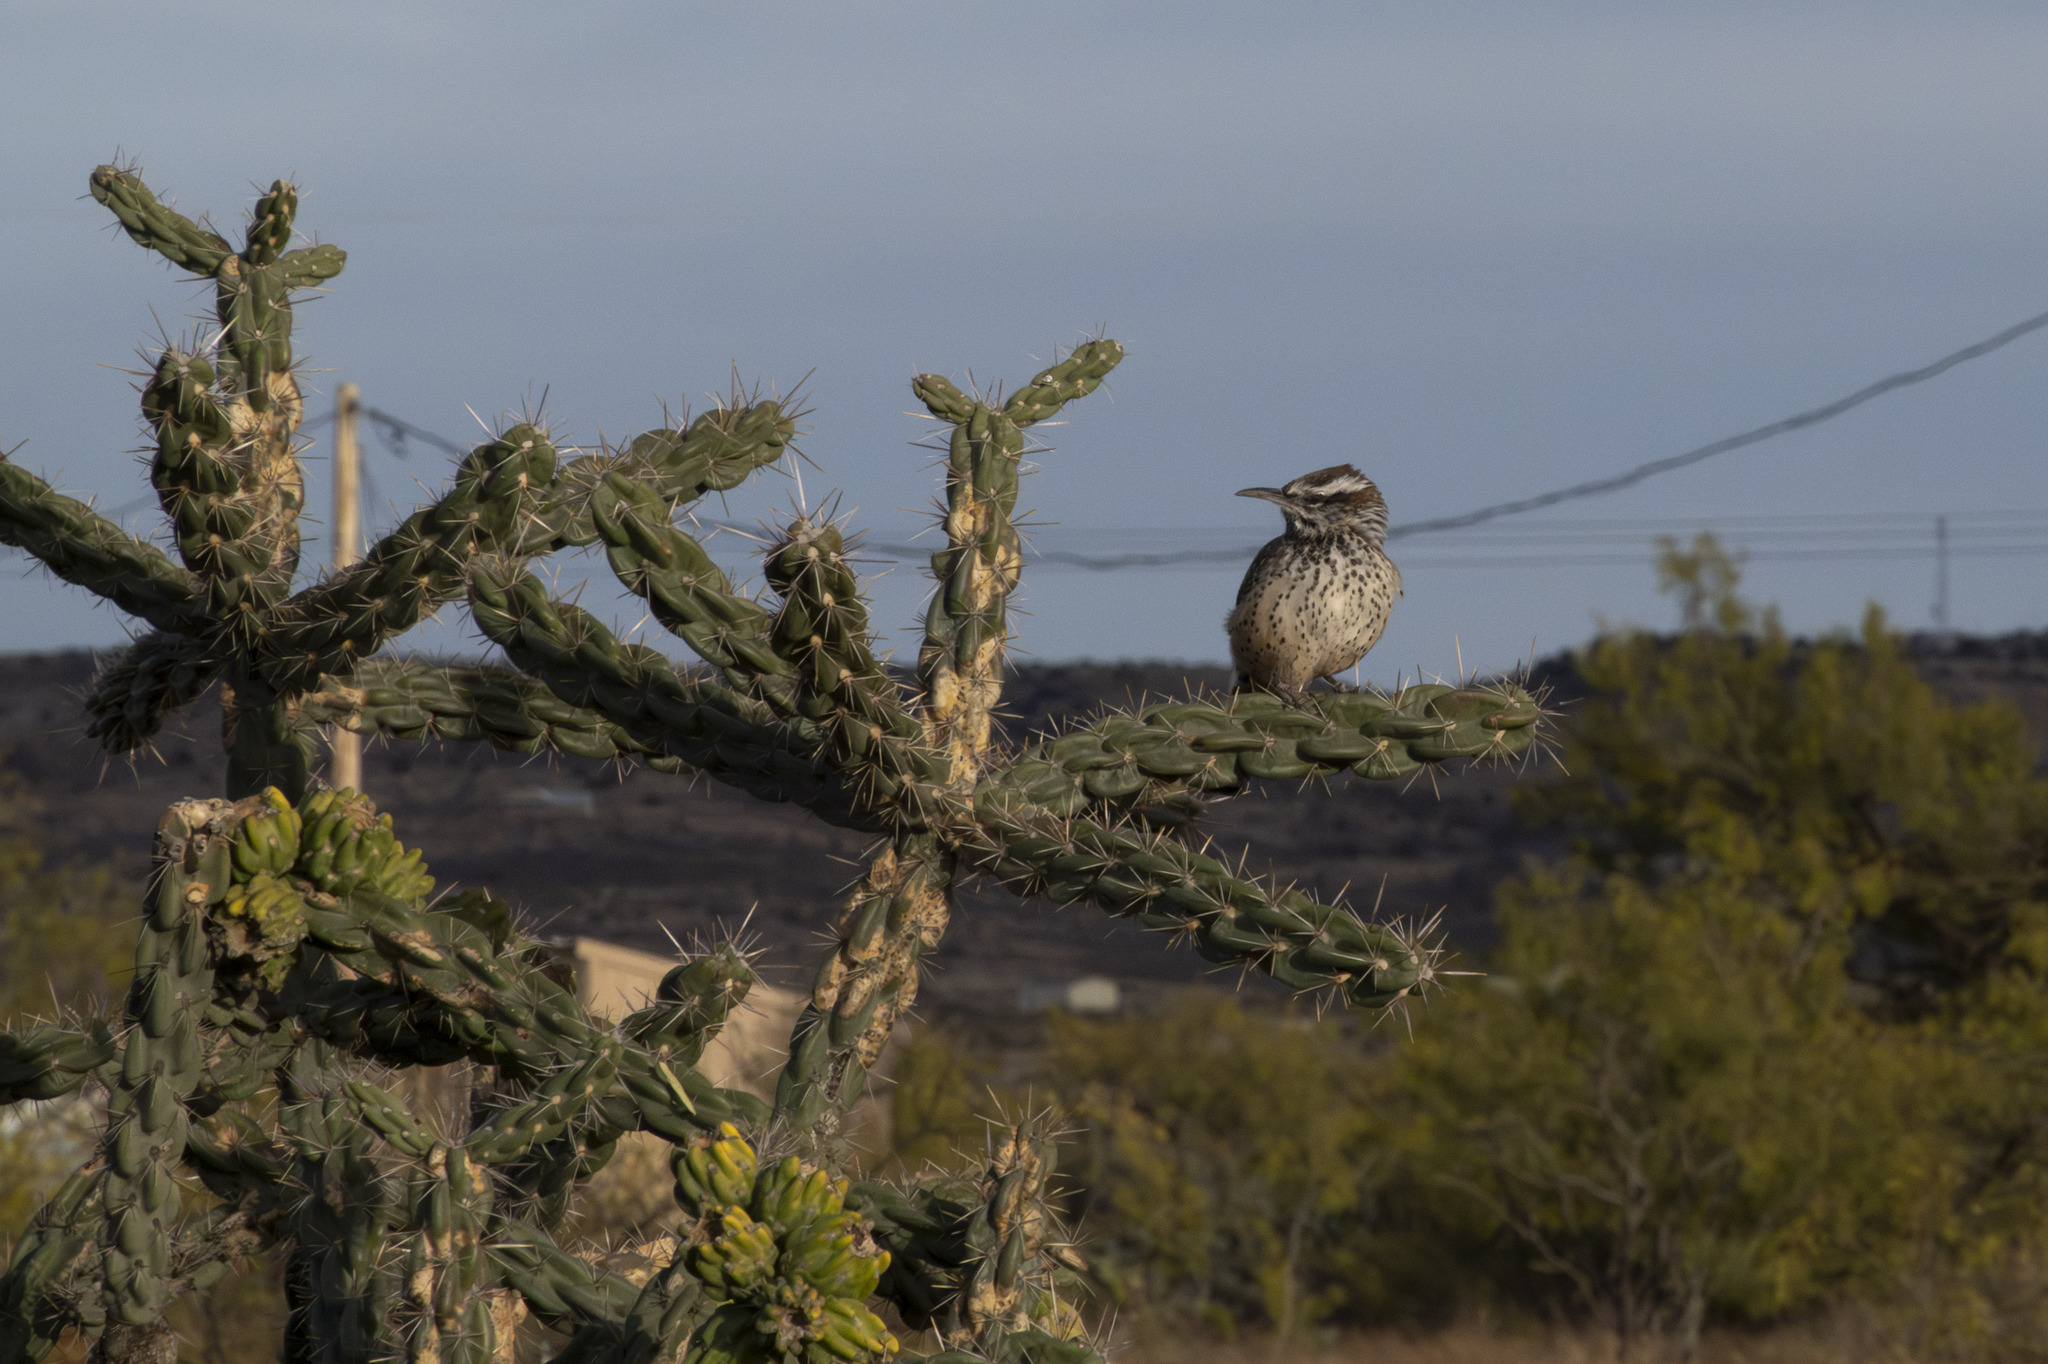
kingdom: Animalia
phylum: Chordata
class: Aves
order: Passeriformes
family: Troglodytidae
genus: Campylorhynchus
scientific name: Campylorhynchus brunneicapillus
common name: Cactus wren
